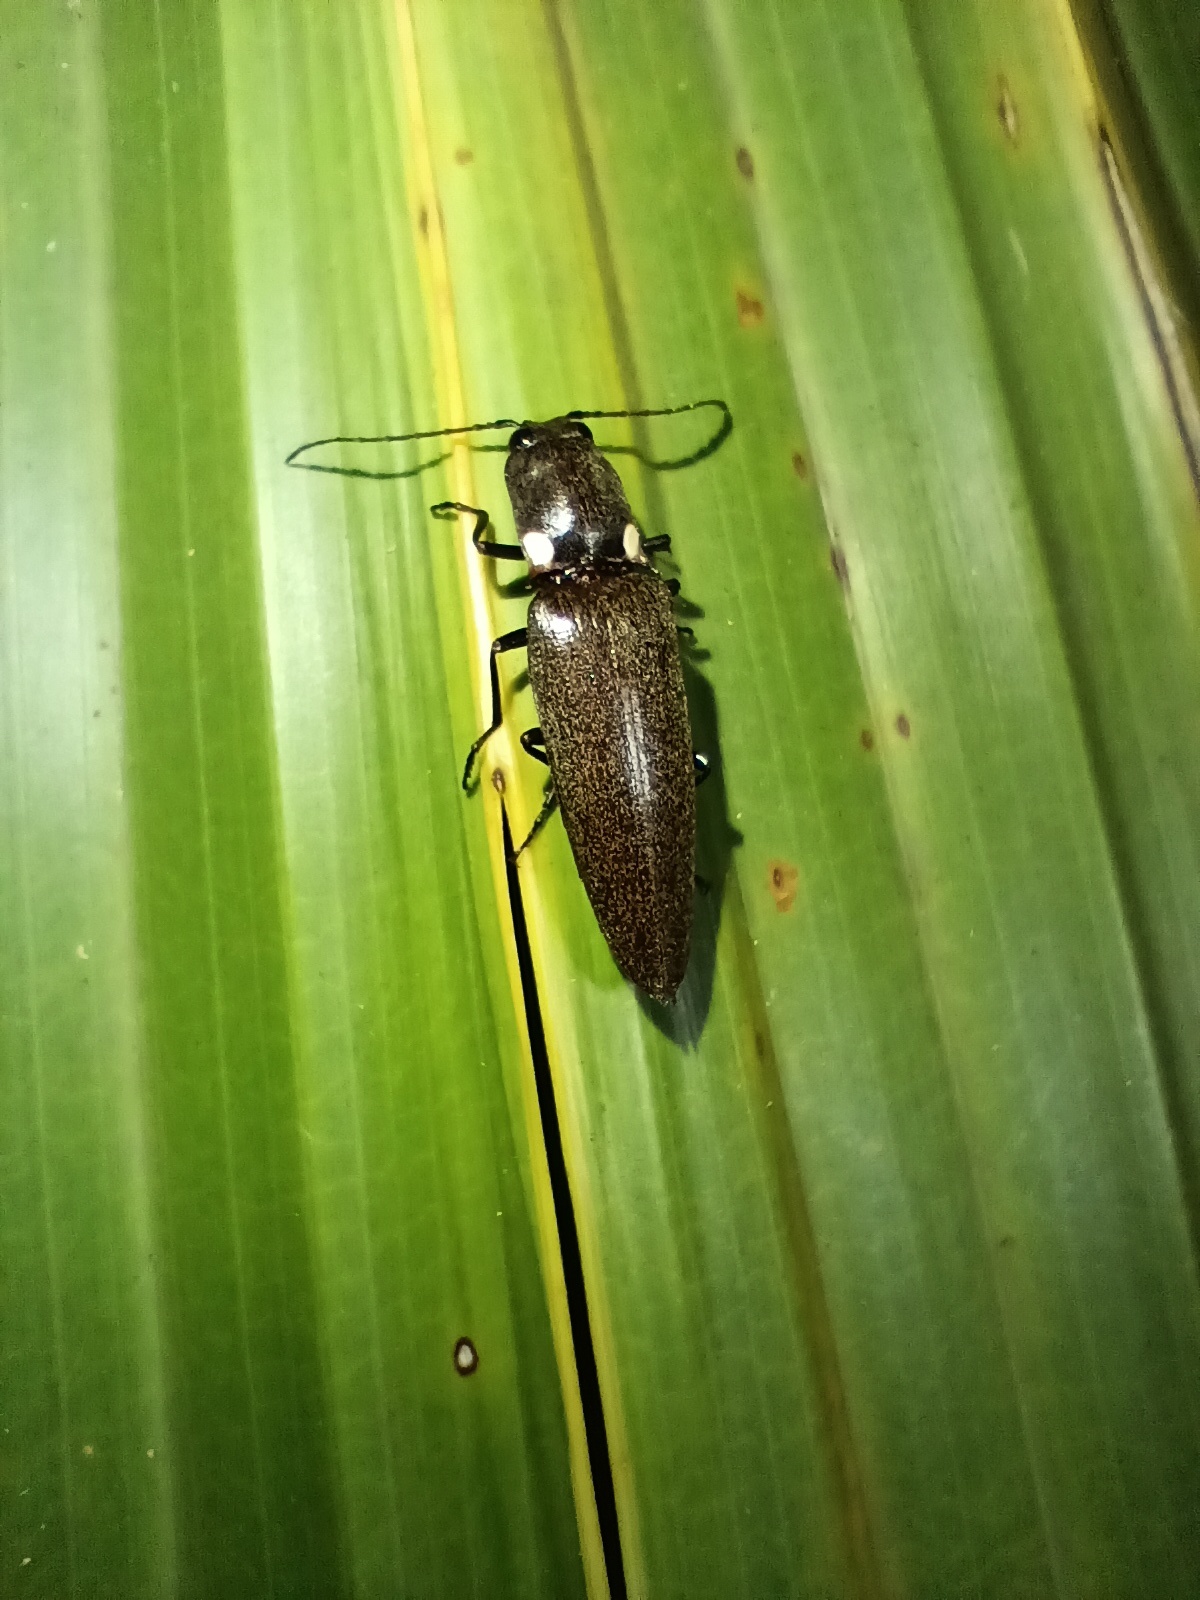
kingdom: Animalia
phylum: Arthropoda
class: Insecta
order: Coleoptera
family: Elateridae
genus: Ignelater
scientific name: Ignelater havaniensis
